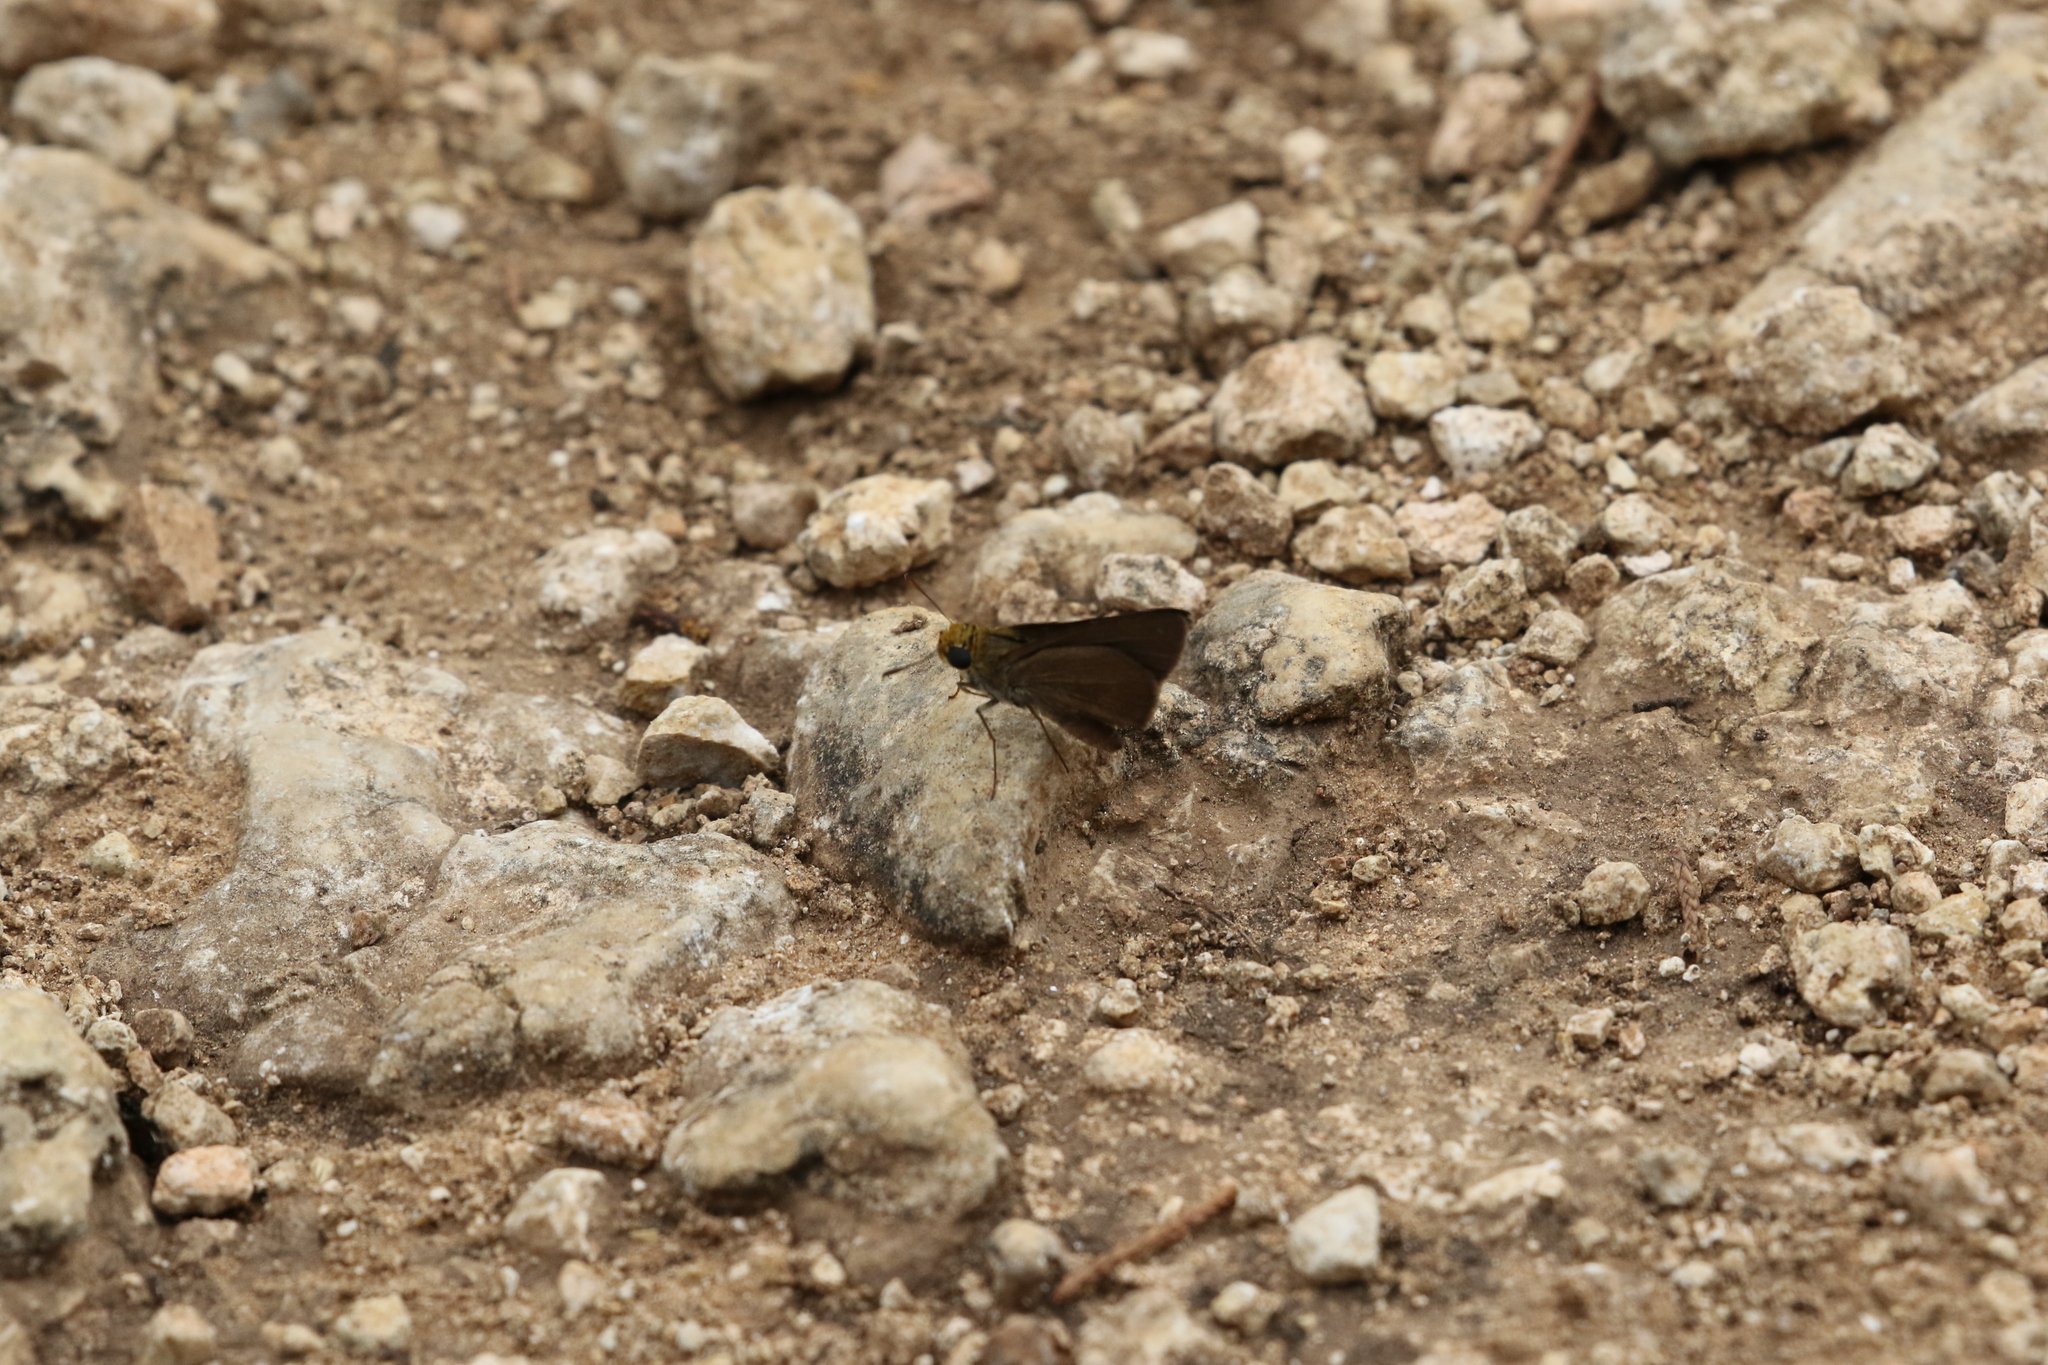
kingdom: Animalia
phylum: Arthropoda
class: Insecta
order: Lepidoptera
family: Hesperiidae
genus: Euphyes
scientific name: Euphyes vestris
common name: Dun skipper
